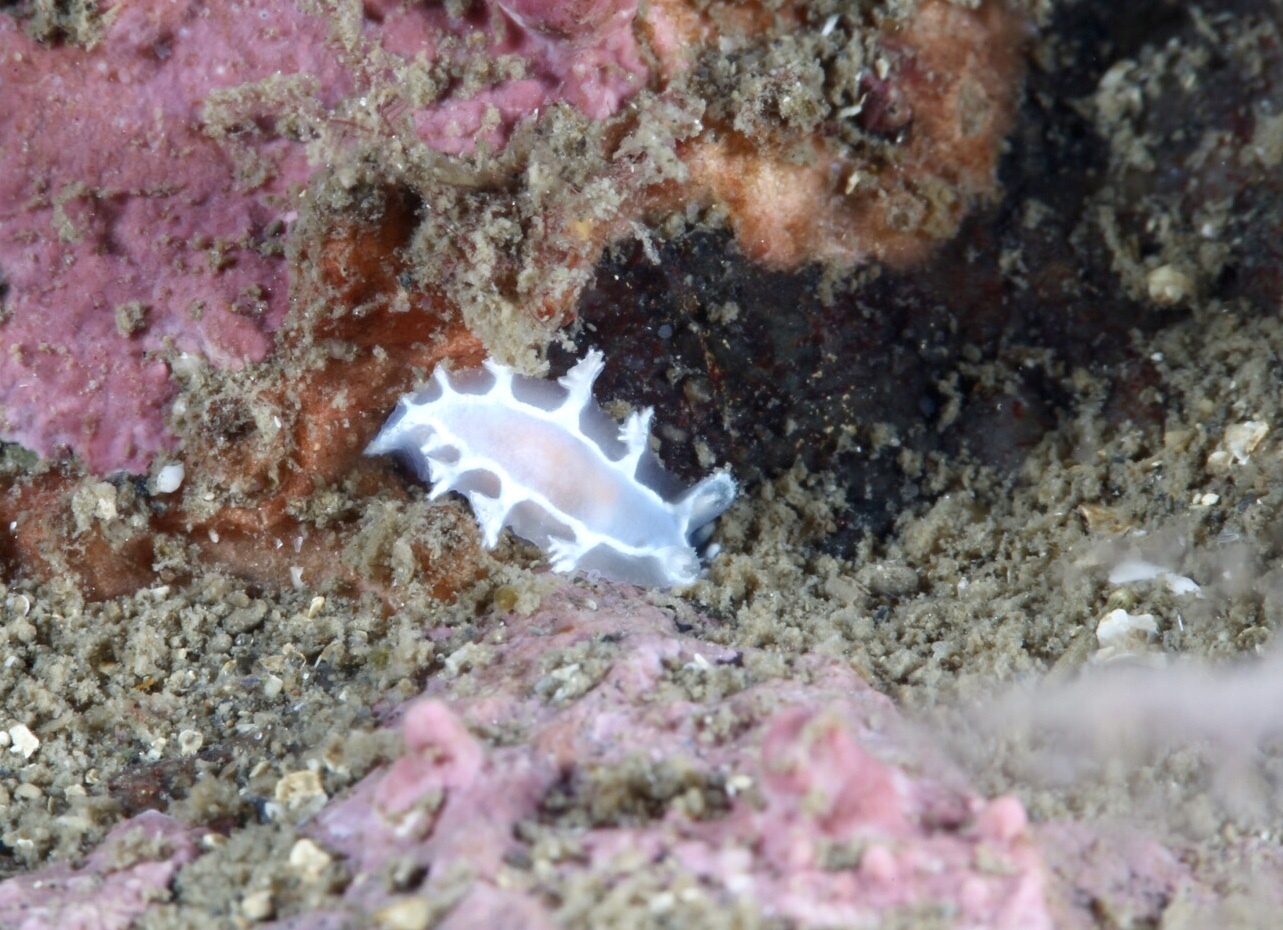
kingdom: Animalia
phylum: Mollusca
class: Gastropoda
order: Nudibranchia
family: Tritoniidae
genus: Duvaucelia
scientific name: Duvaucelia lineata
